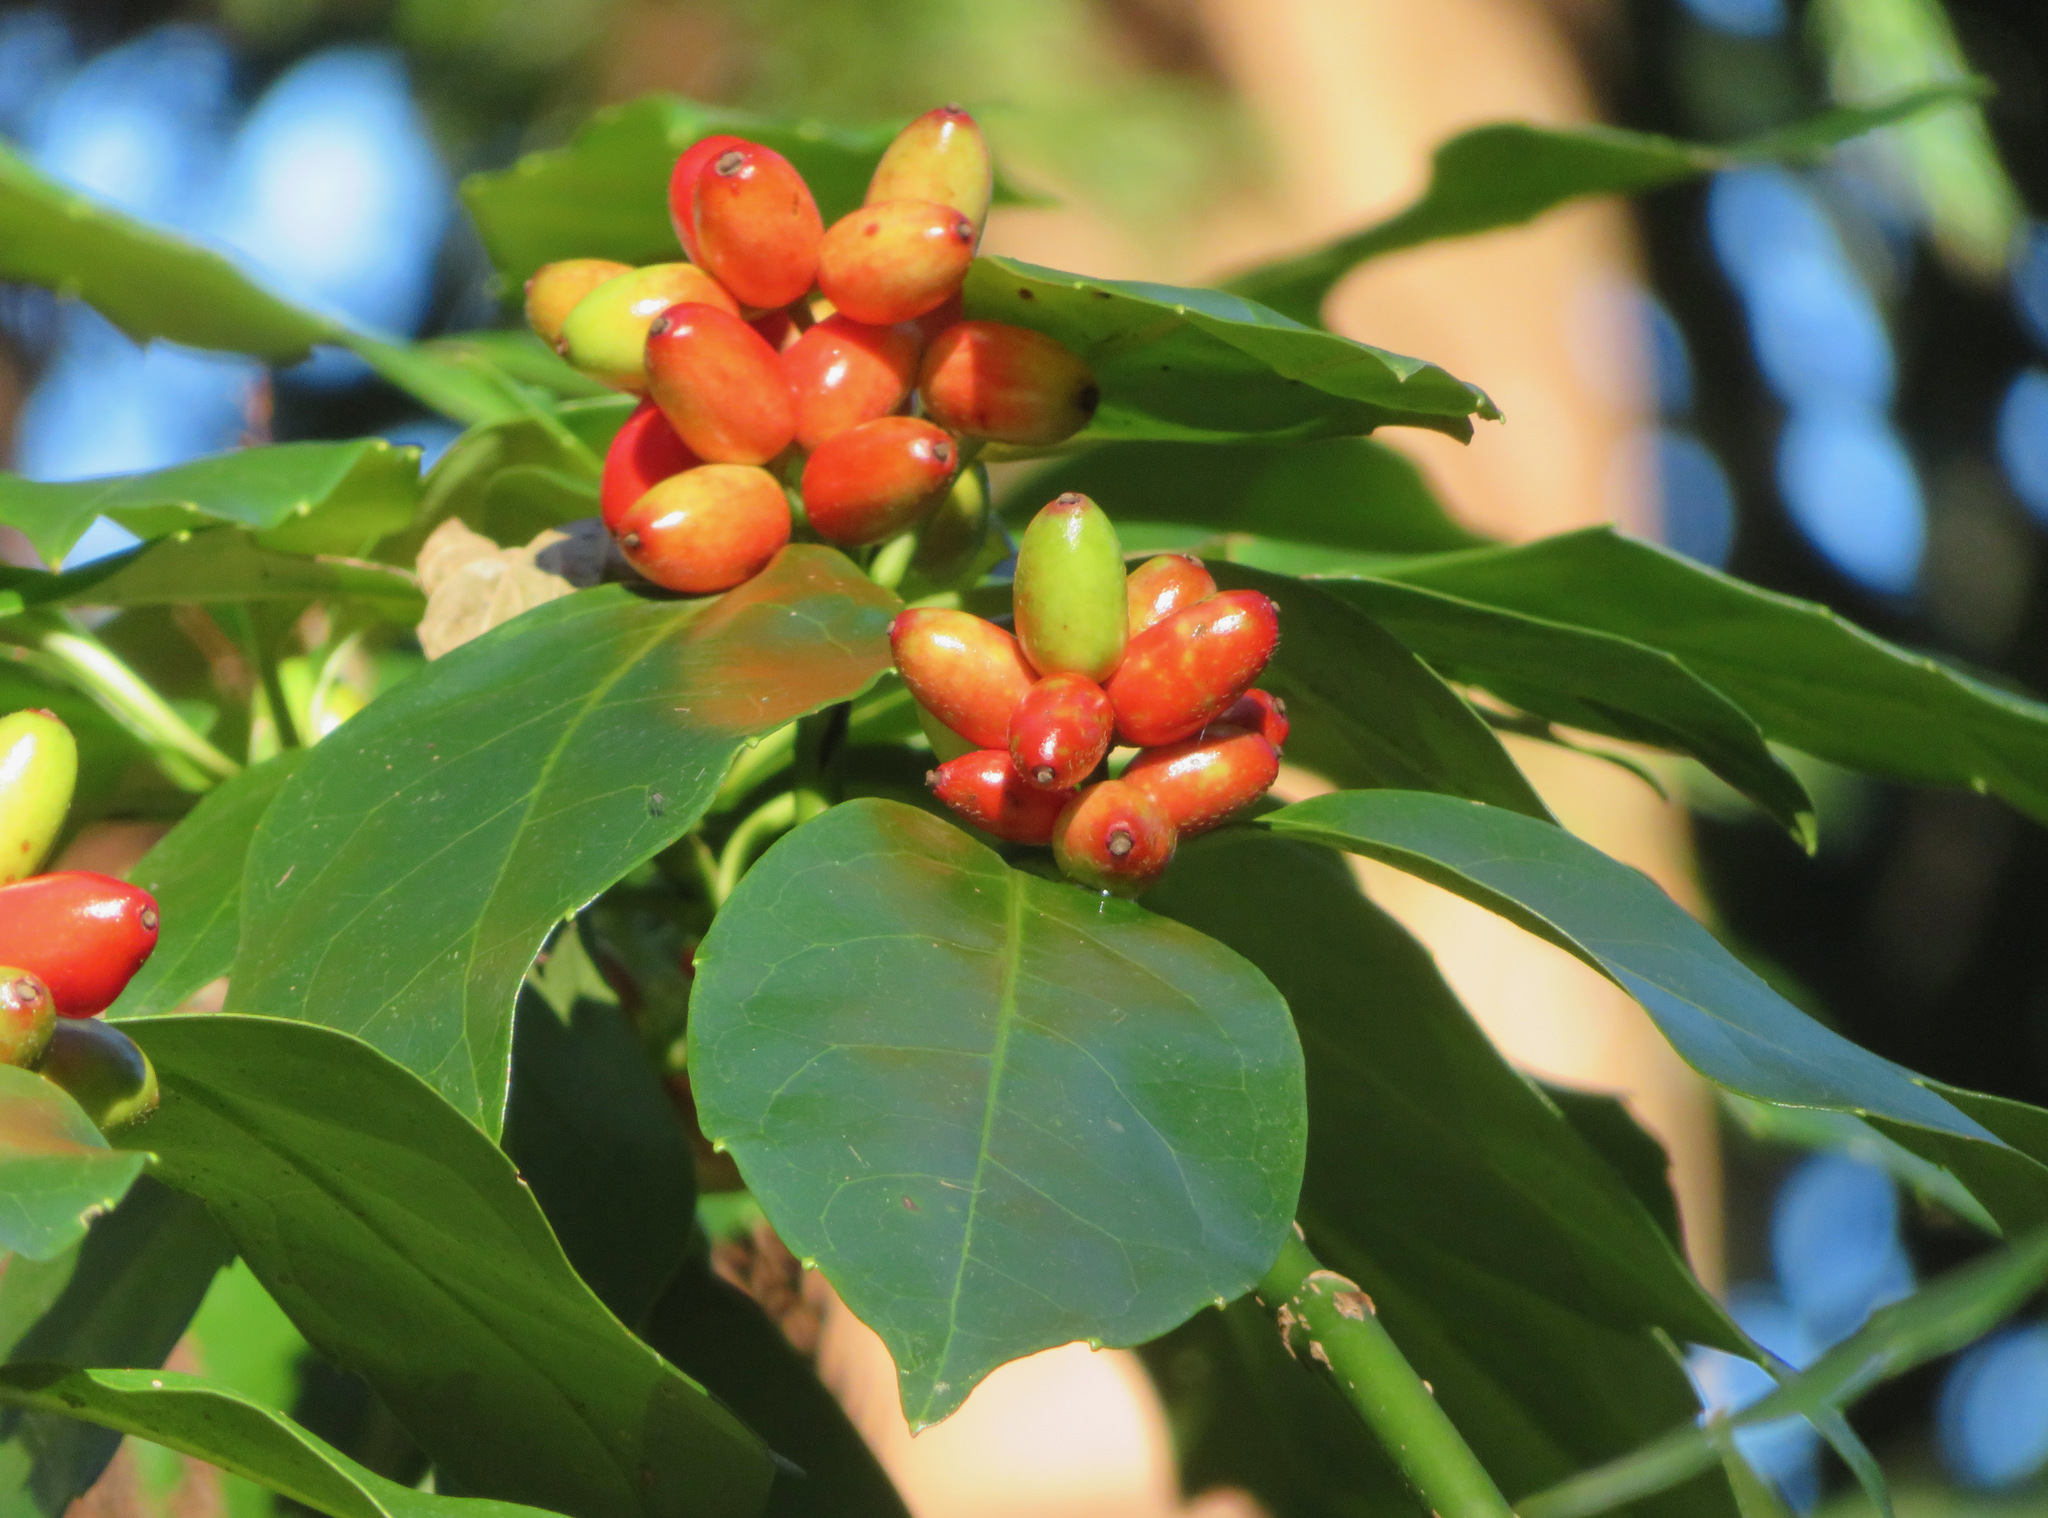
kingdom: Plantae
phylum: Tracheophyta
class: Magnoliopsida
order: Garryales
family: Garryaceae
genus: Aucuba
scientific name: Aucuba japonica
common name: Spotted-laurel
